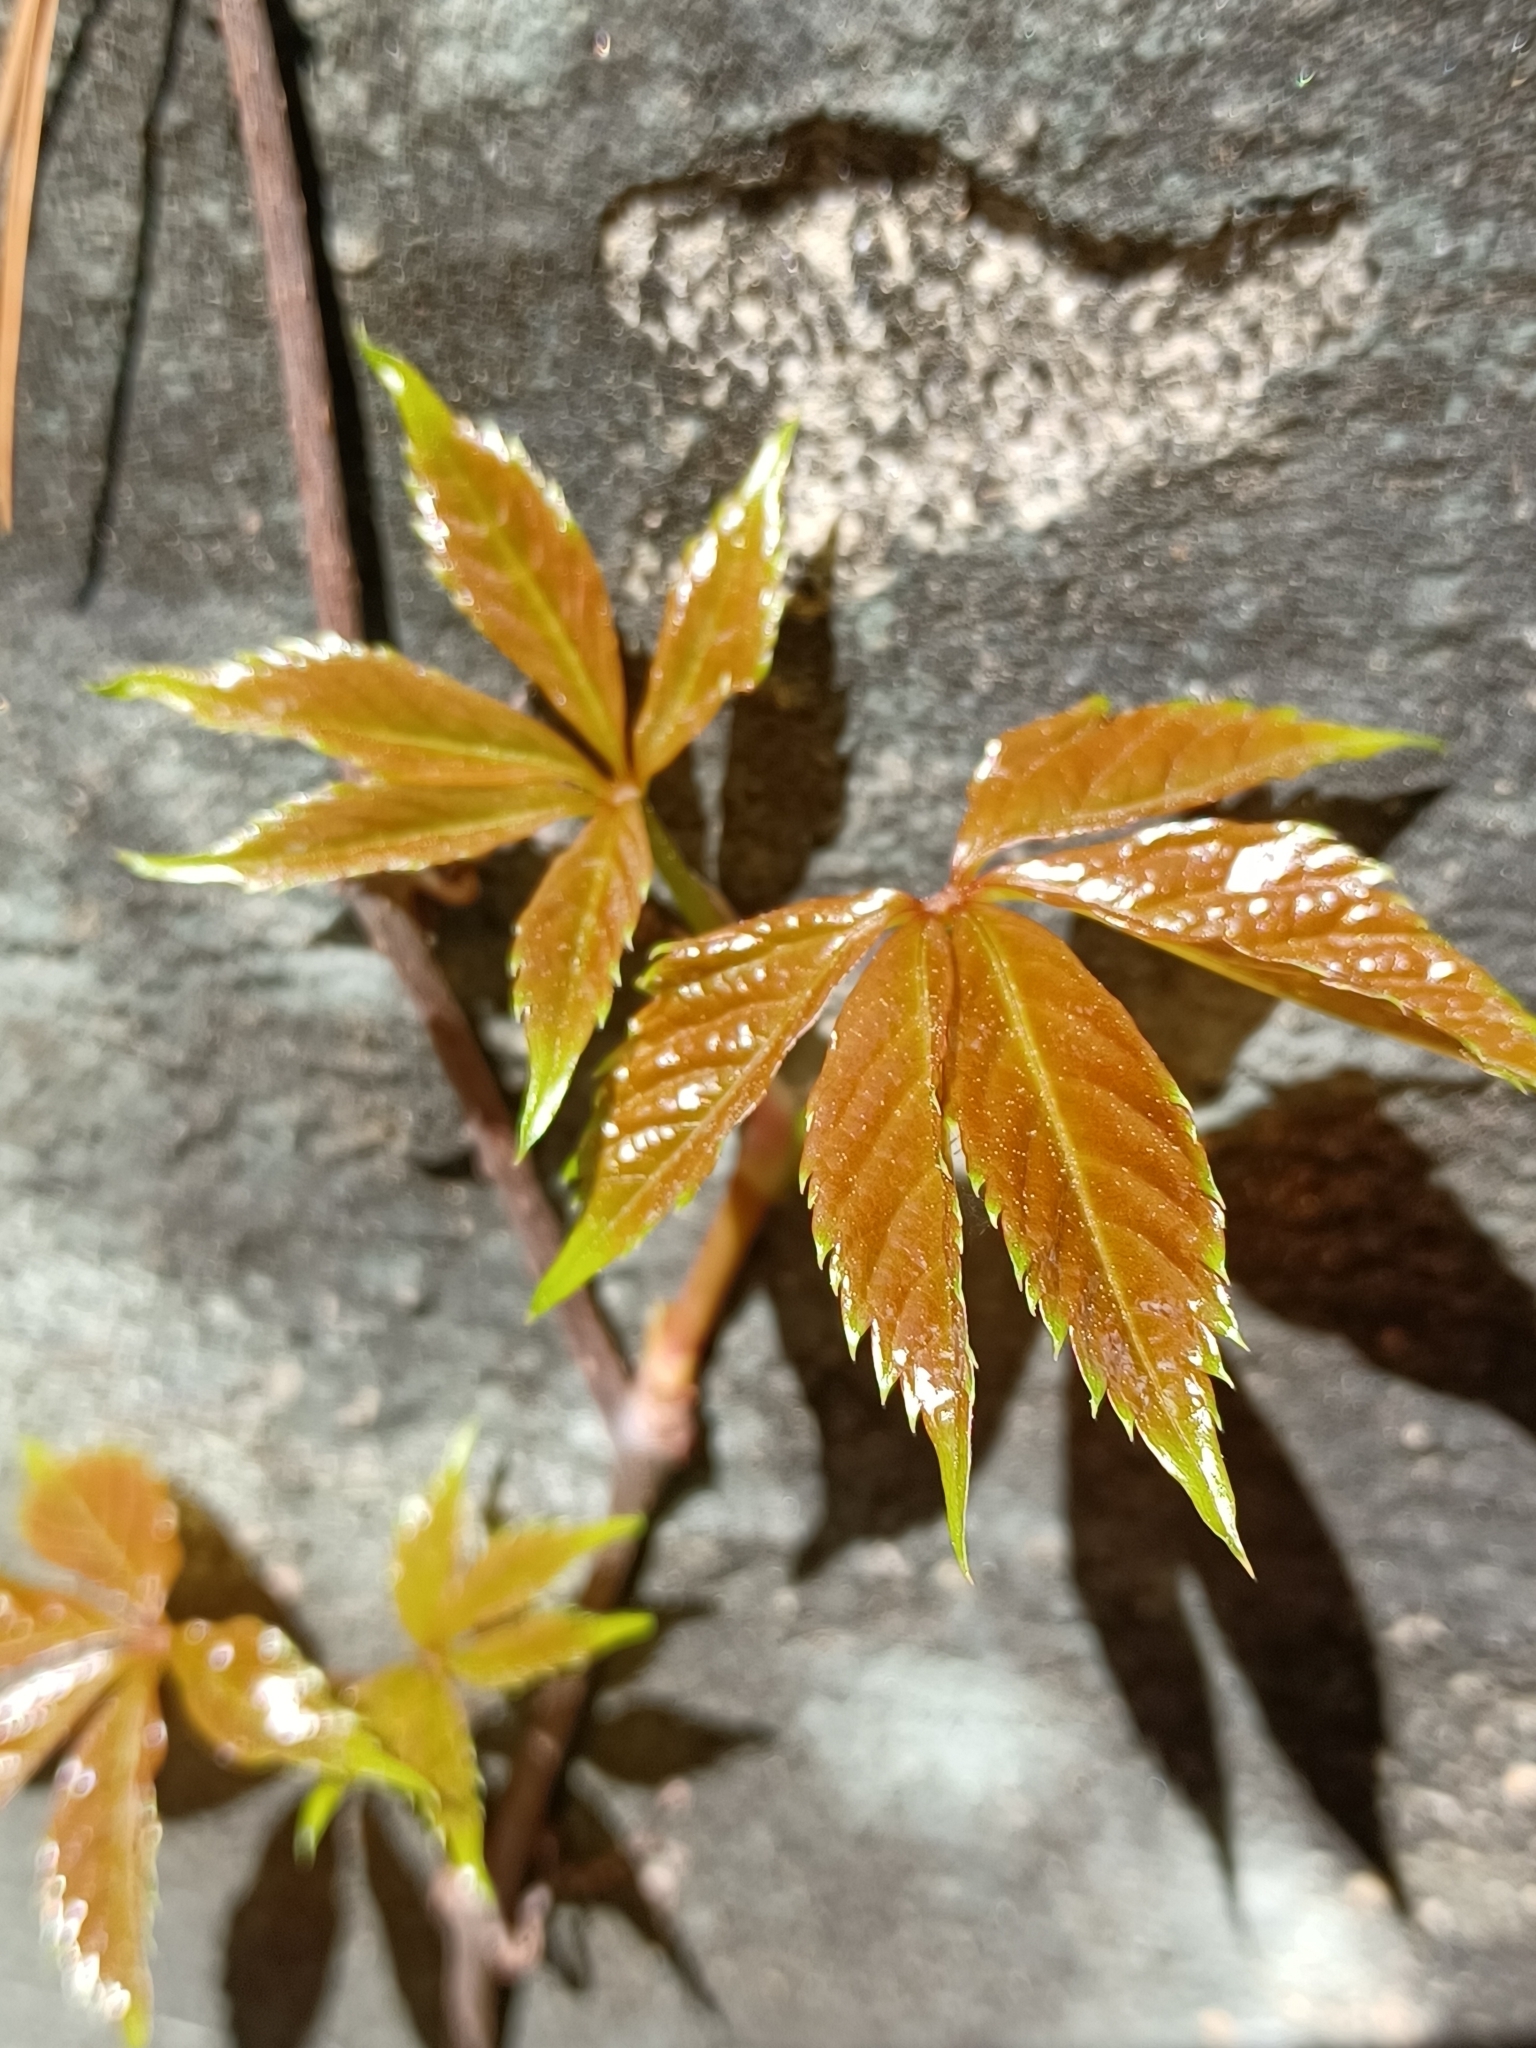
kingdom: Plantae
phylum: Tracheophyta
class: Magnoliopsida
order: Vitales
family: Vitaceae
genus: Parthenocissus
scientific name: Parthenocissus quinquefolia
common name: Virginia-creeper
